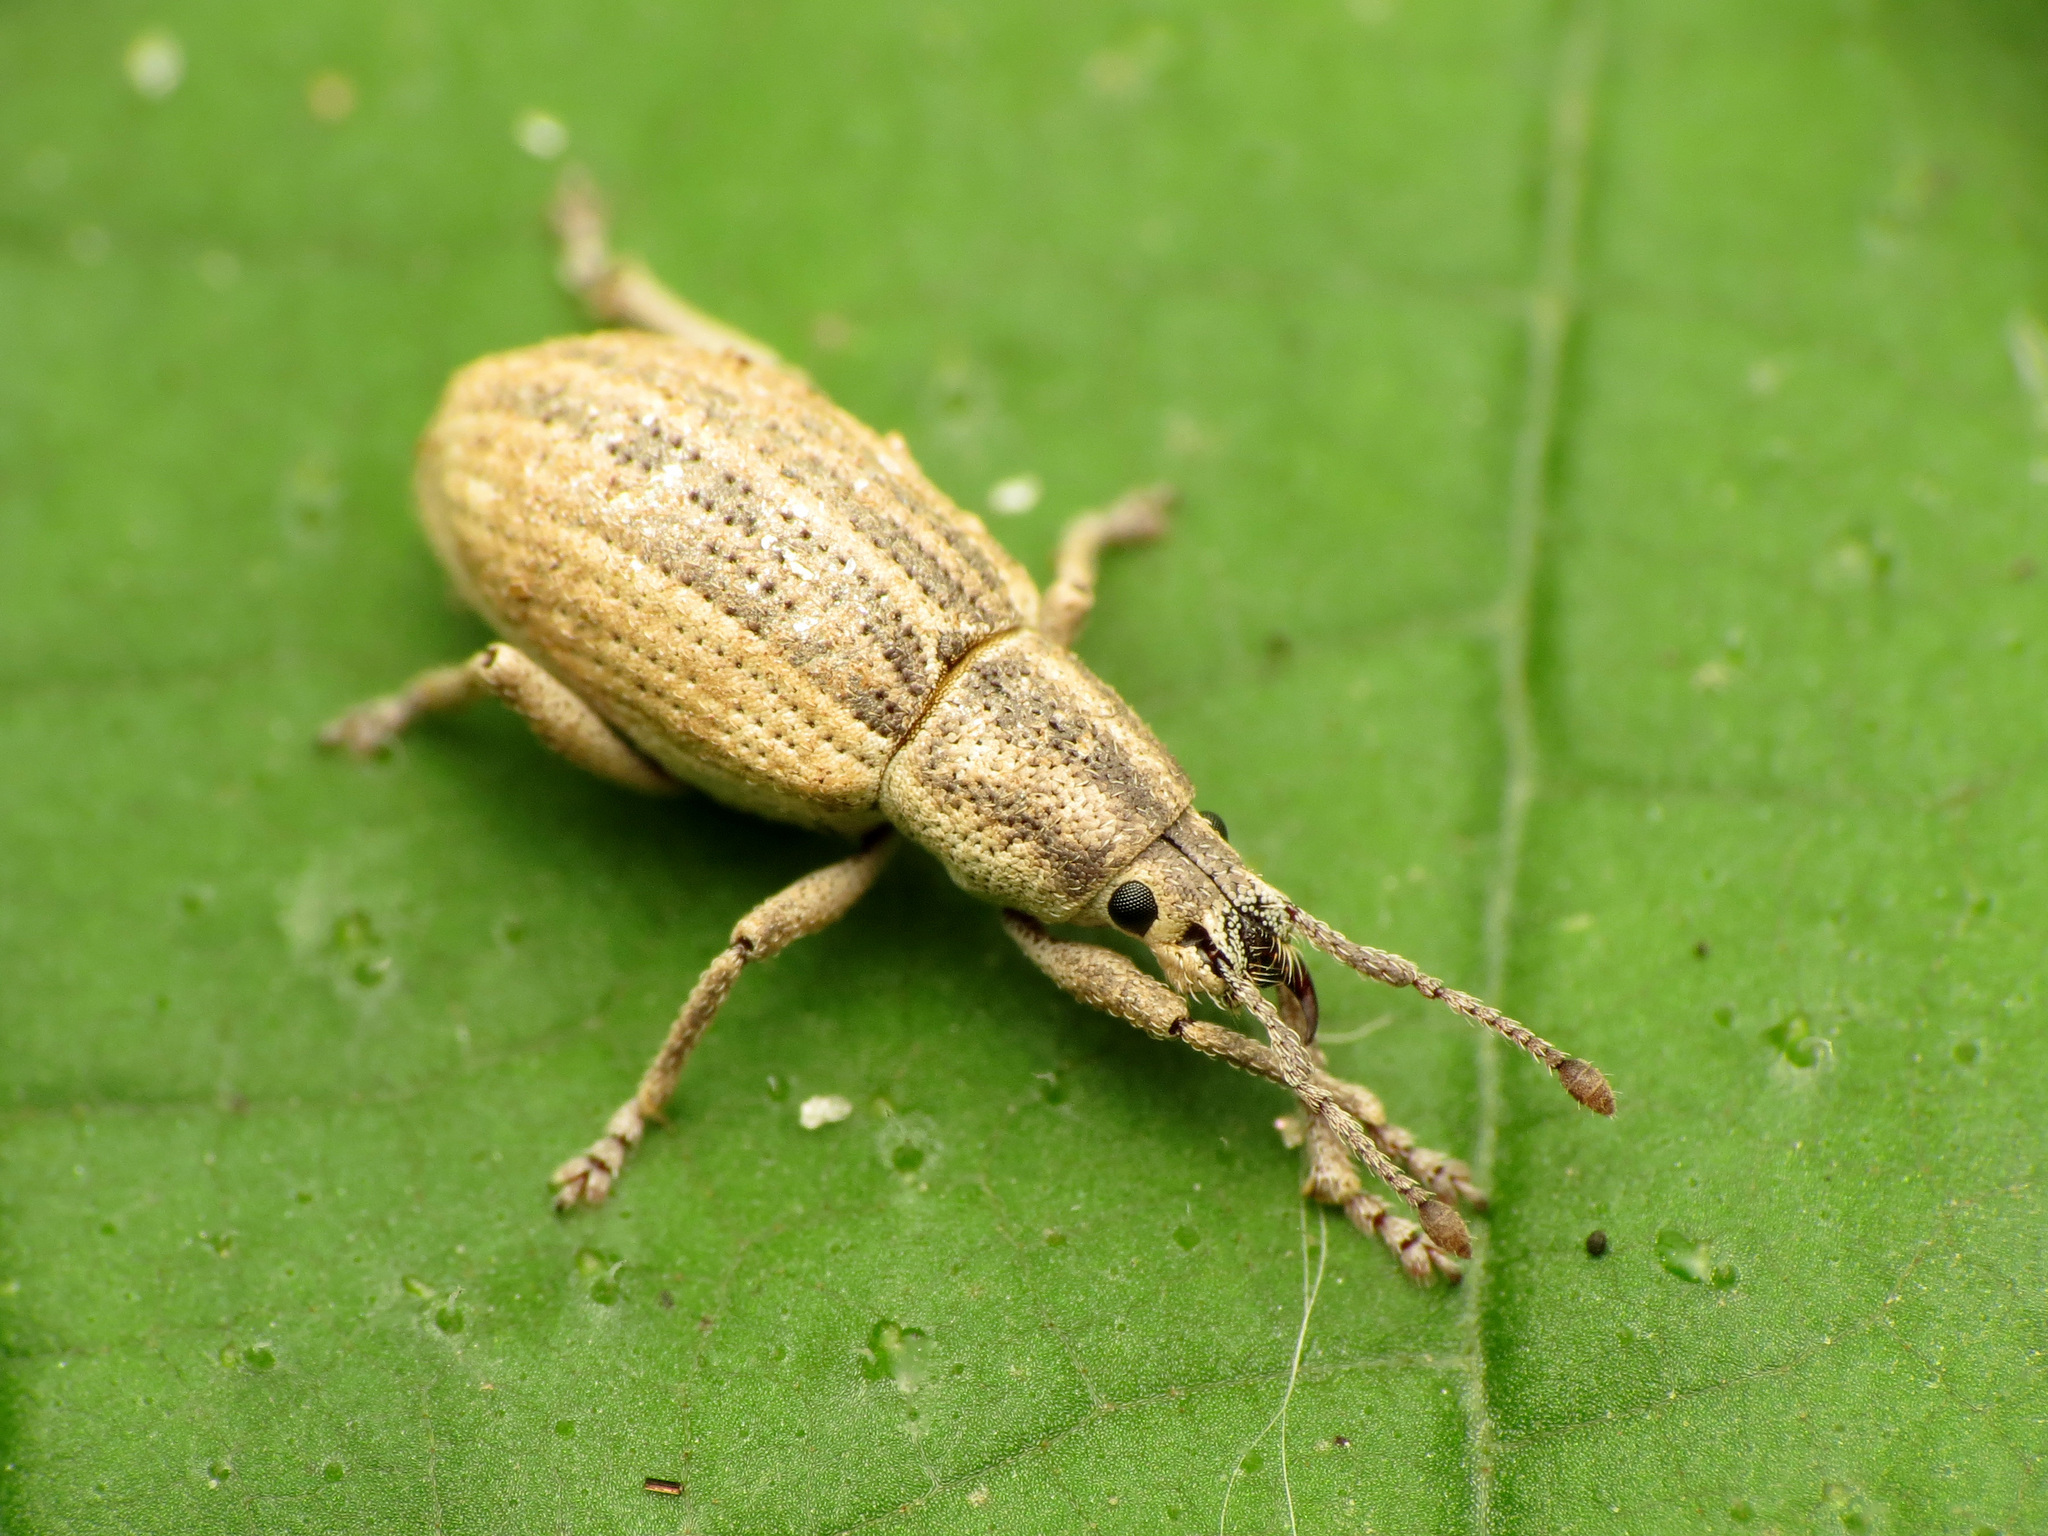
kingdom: Animalia
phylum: Arthropoda
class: Insecta
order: Coleoptera
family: Curculionidae
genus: Aphrastus
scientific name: Aphrastus taeniatus
